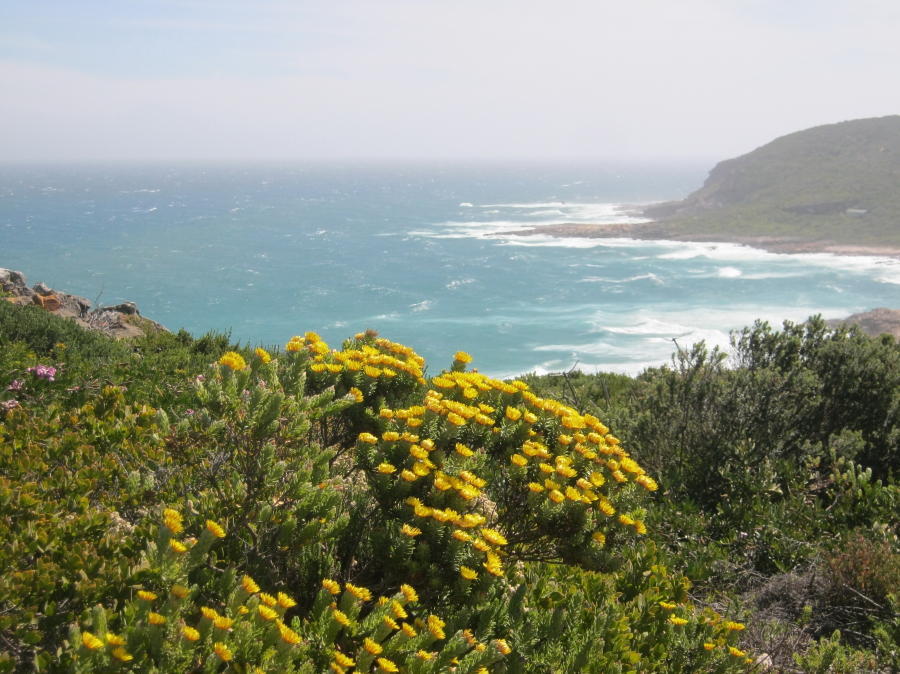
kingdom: Plantae
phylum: Tracheophyta
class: Magnoliopsida
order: Asterales
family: Asteraceae
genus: Oedera
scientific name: Oedera calycina
